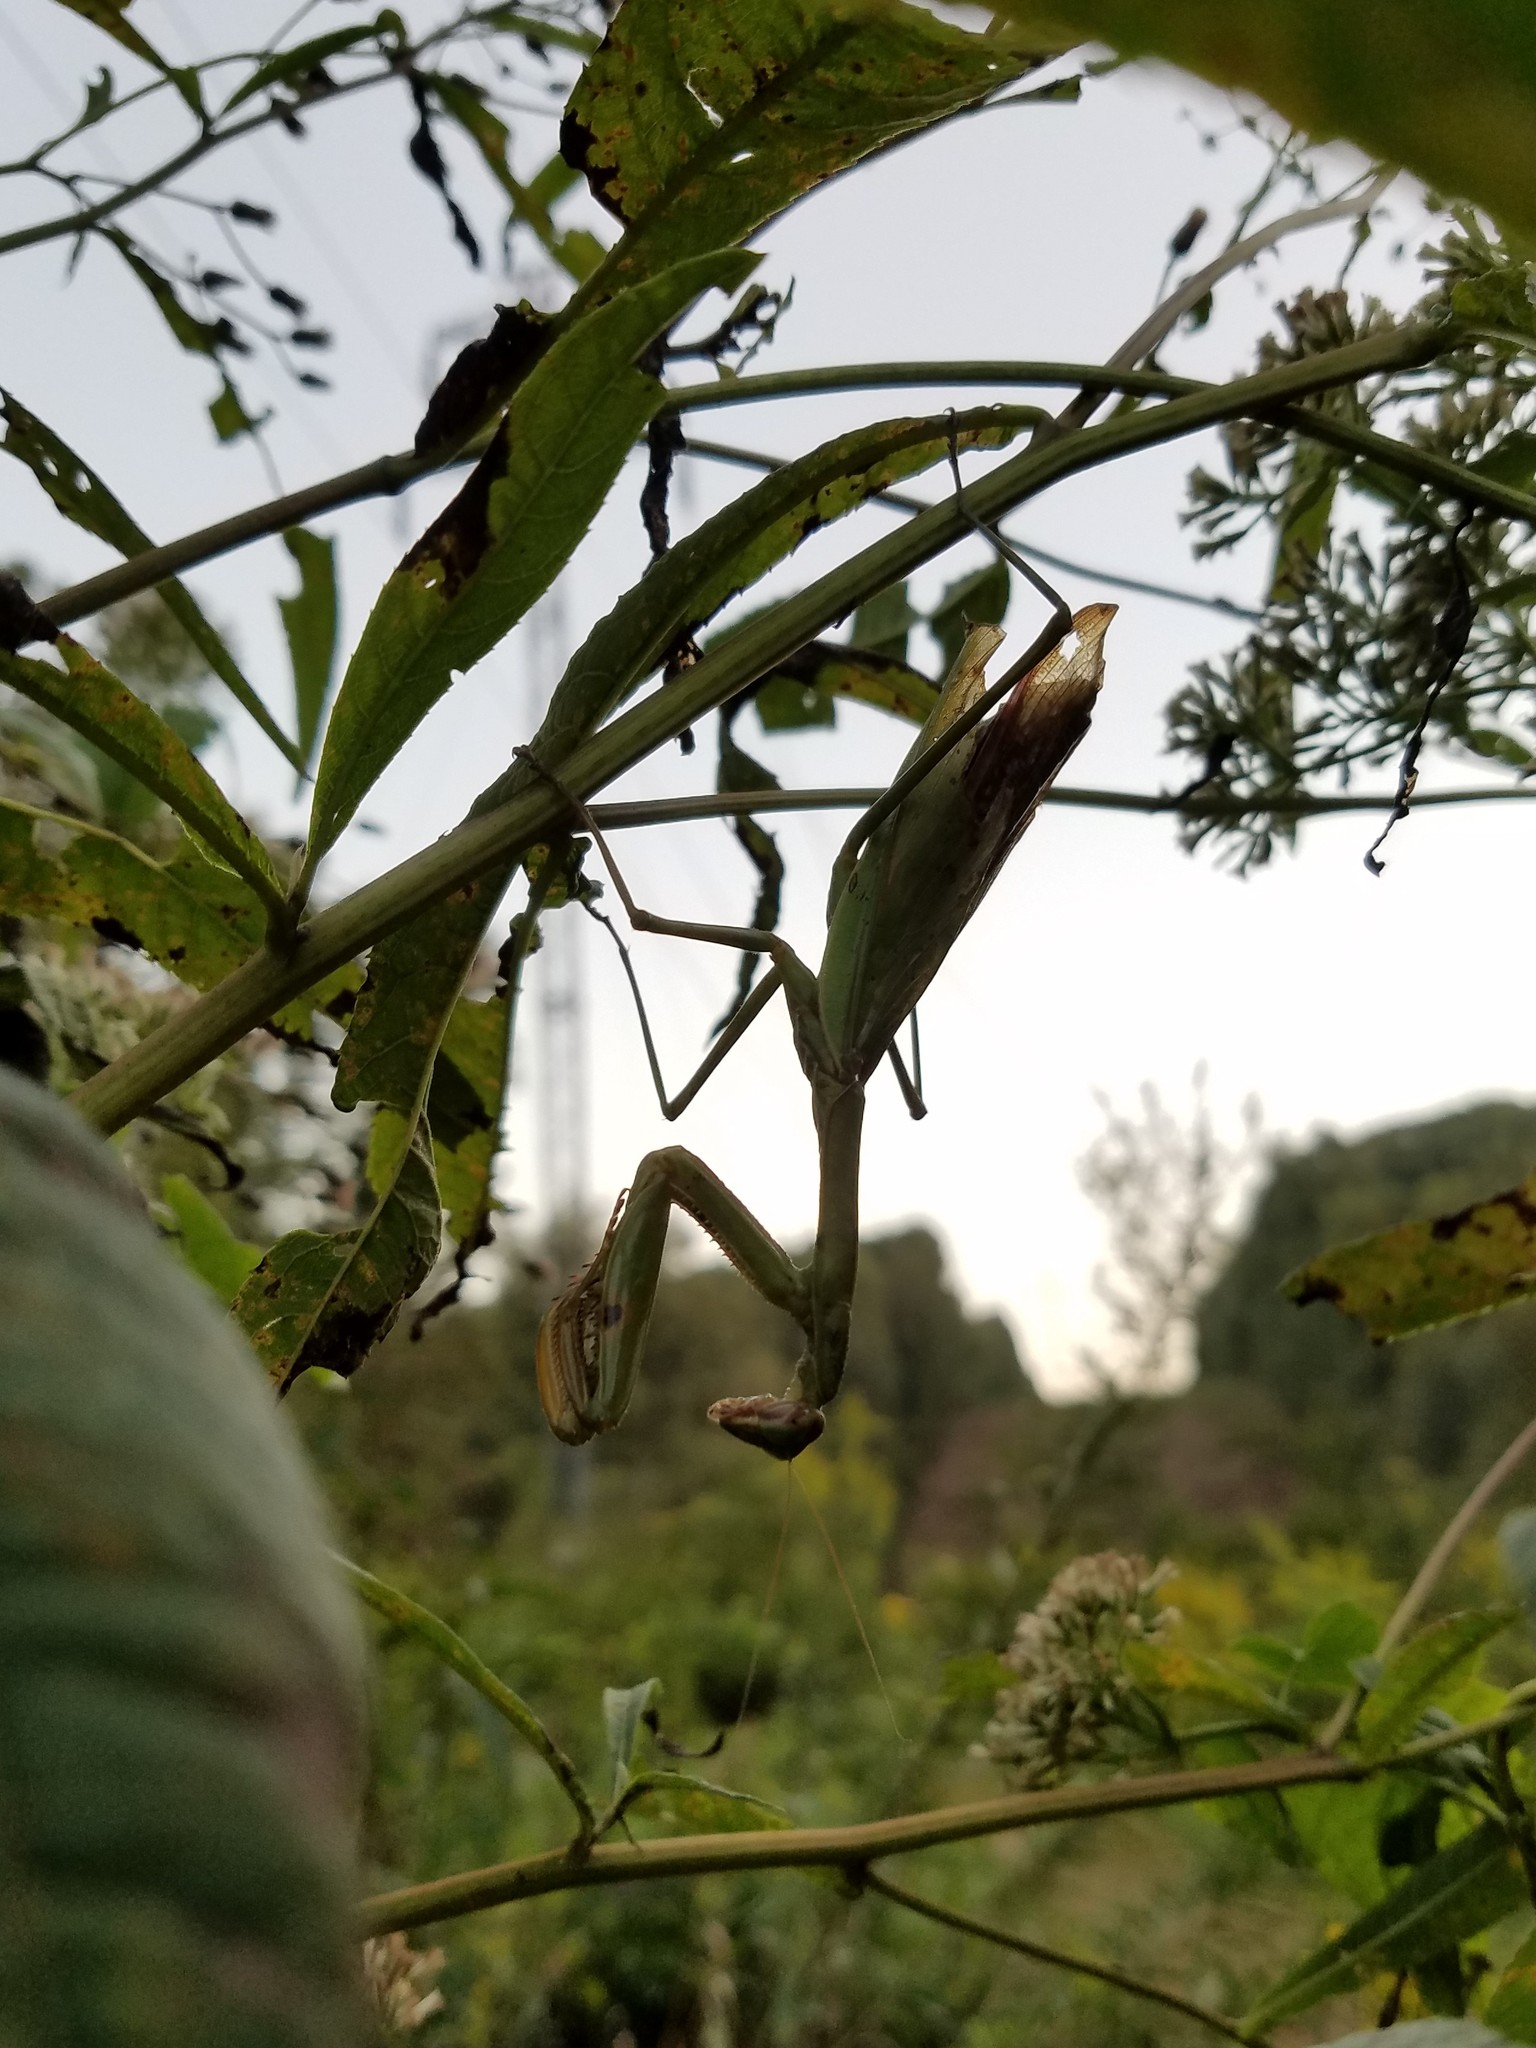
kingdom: Animalia
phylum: Arthropoda
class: Insecta
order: Mantodea
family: Mantidae
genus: Tenodera
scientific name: Tenodera sinensis
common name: Chinese mantis
